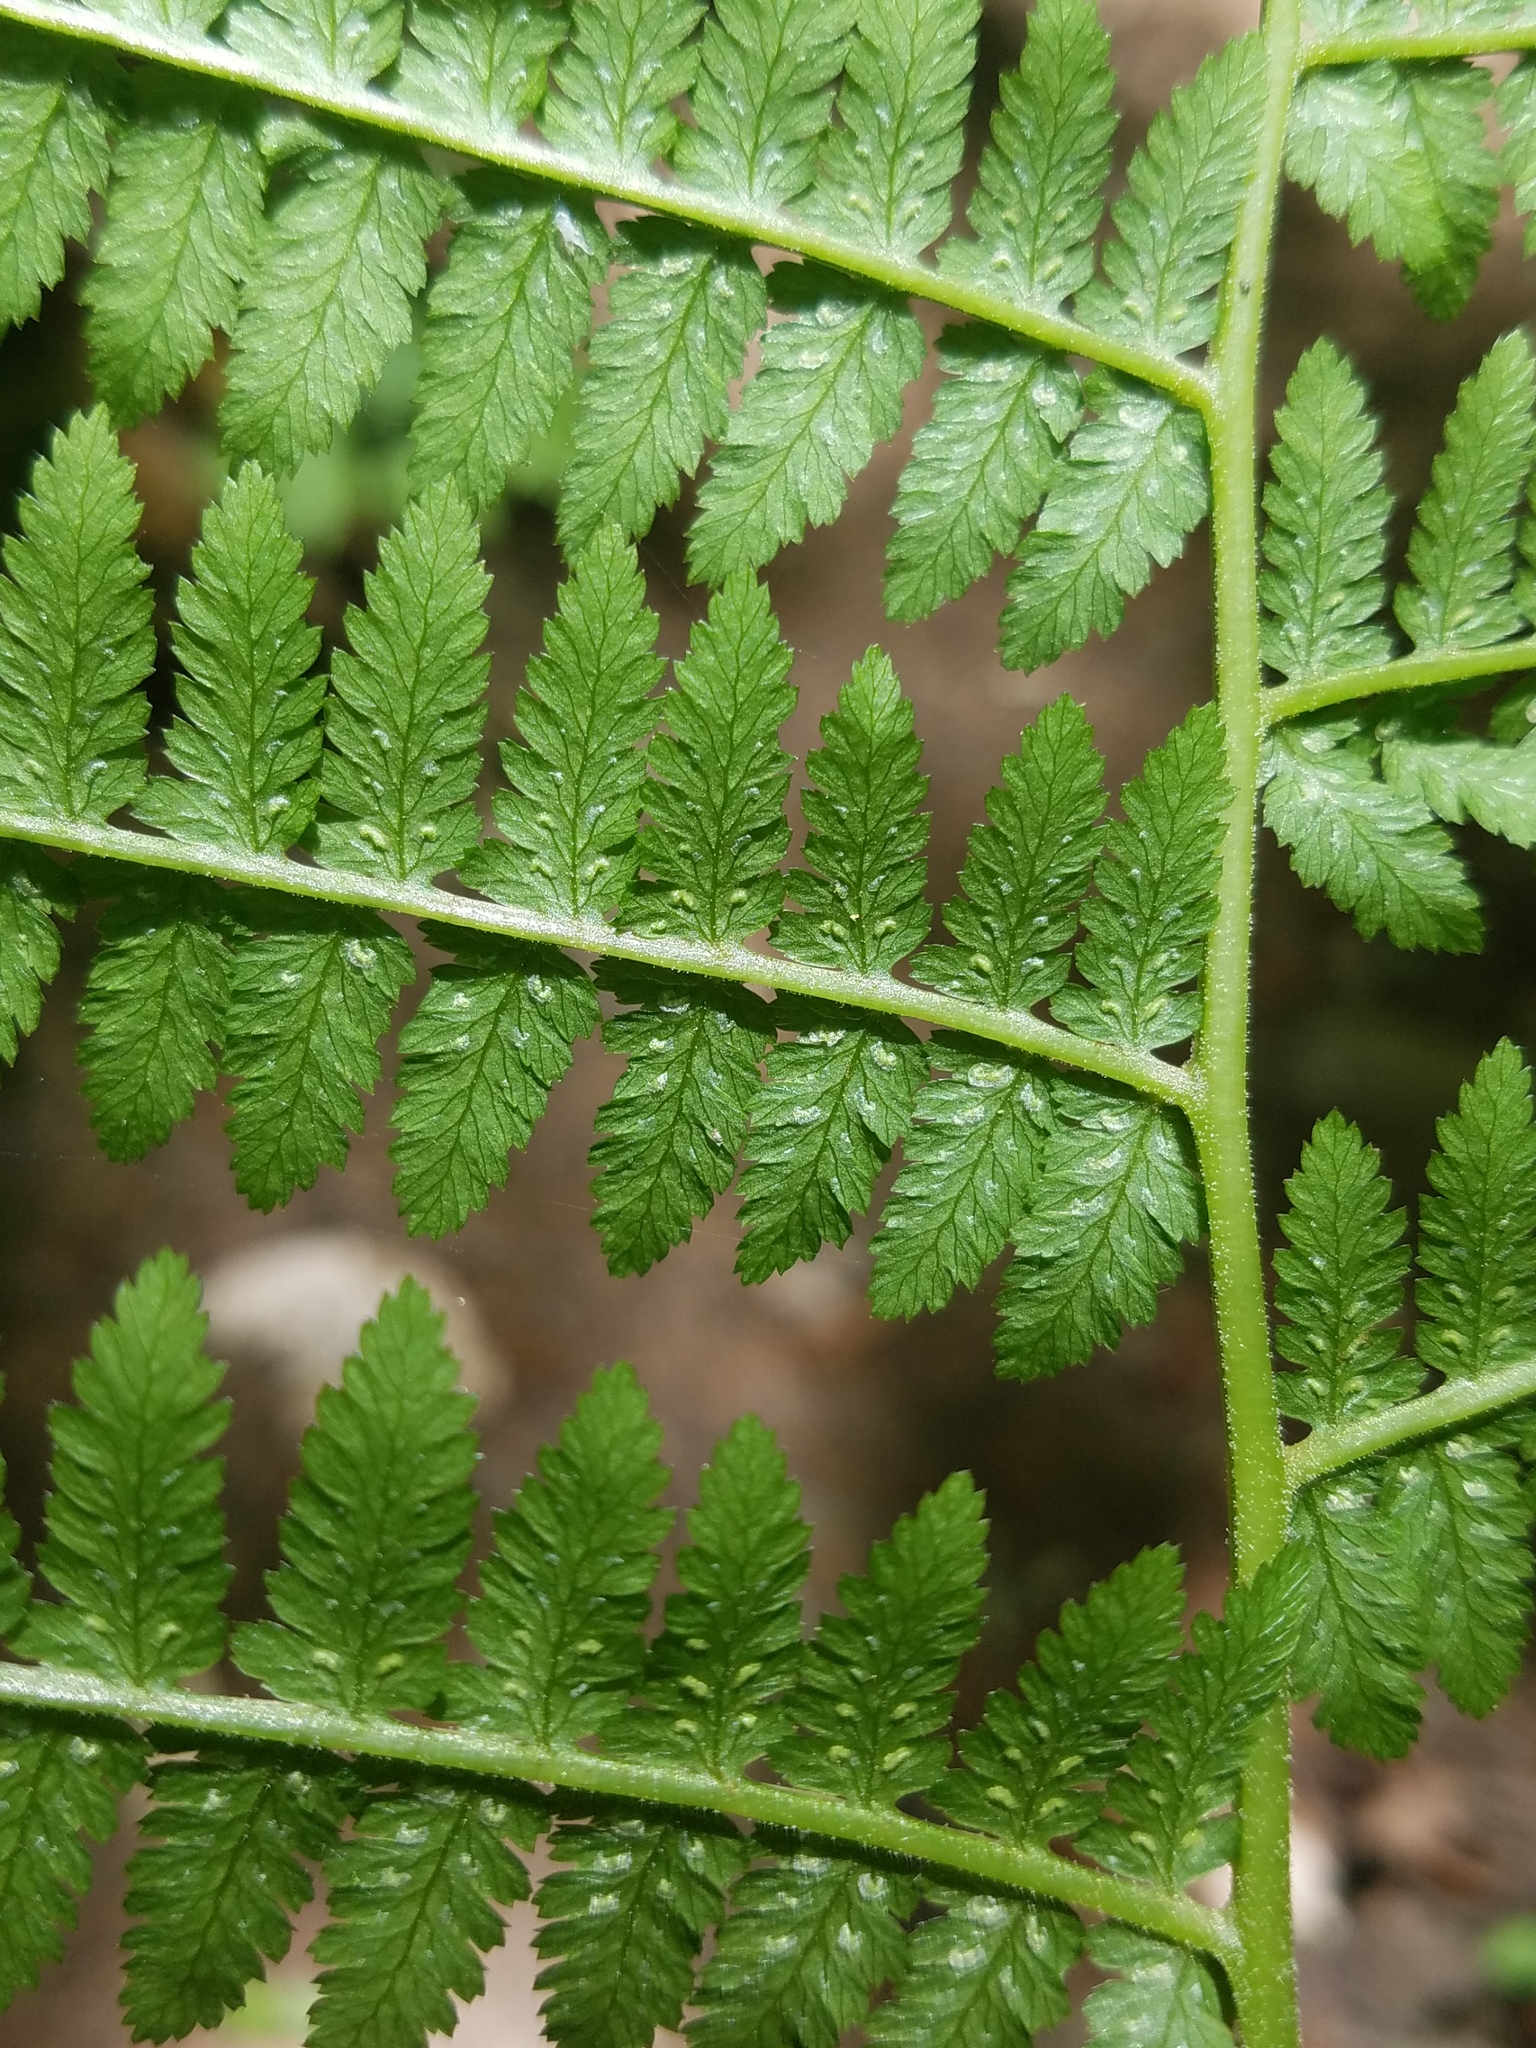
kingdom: Plantae
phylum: Tracheophyta
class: Polypodiopsida
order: Polypodiales
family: Athyriaceae
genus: Athyrium
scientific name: Athyrium angustum
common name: Northern lady fern
